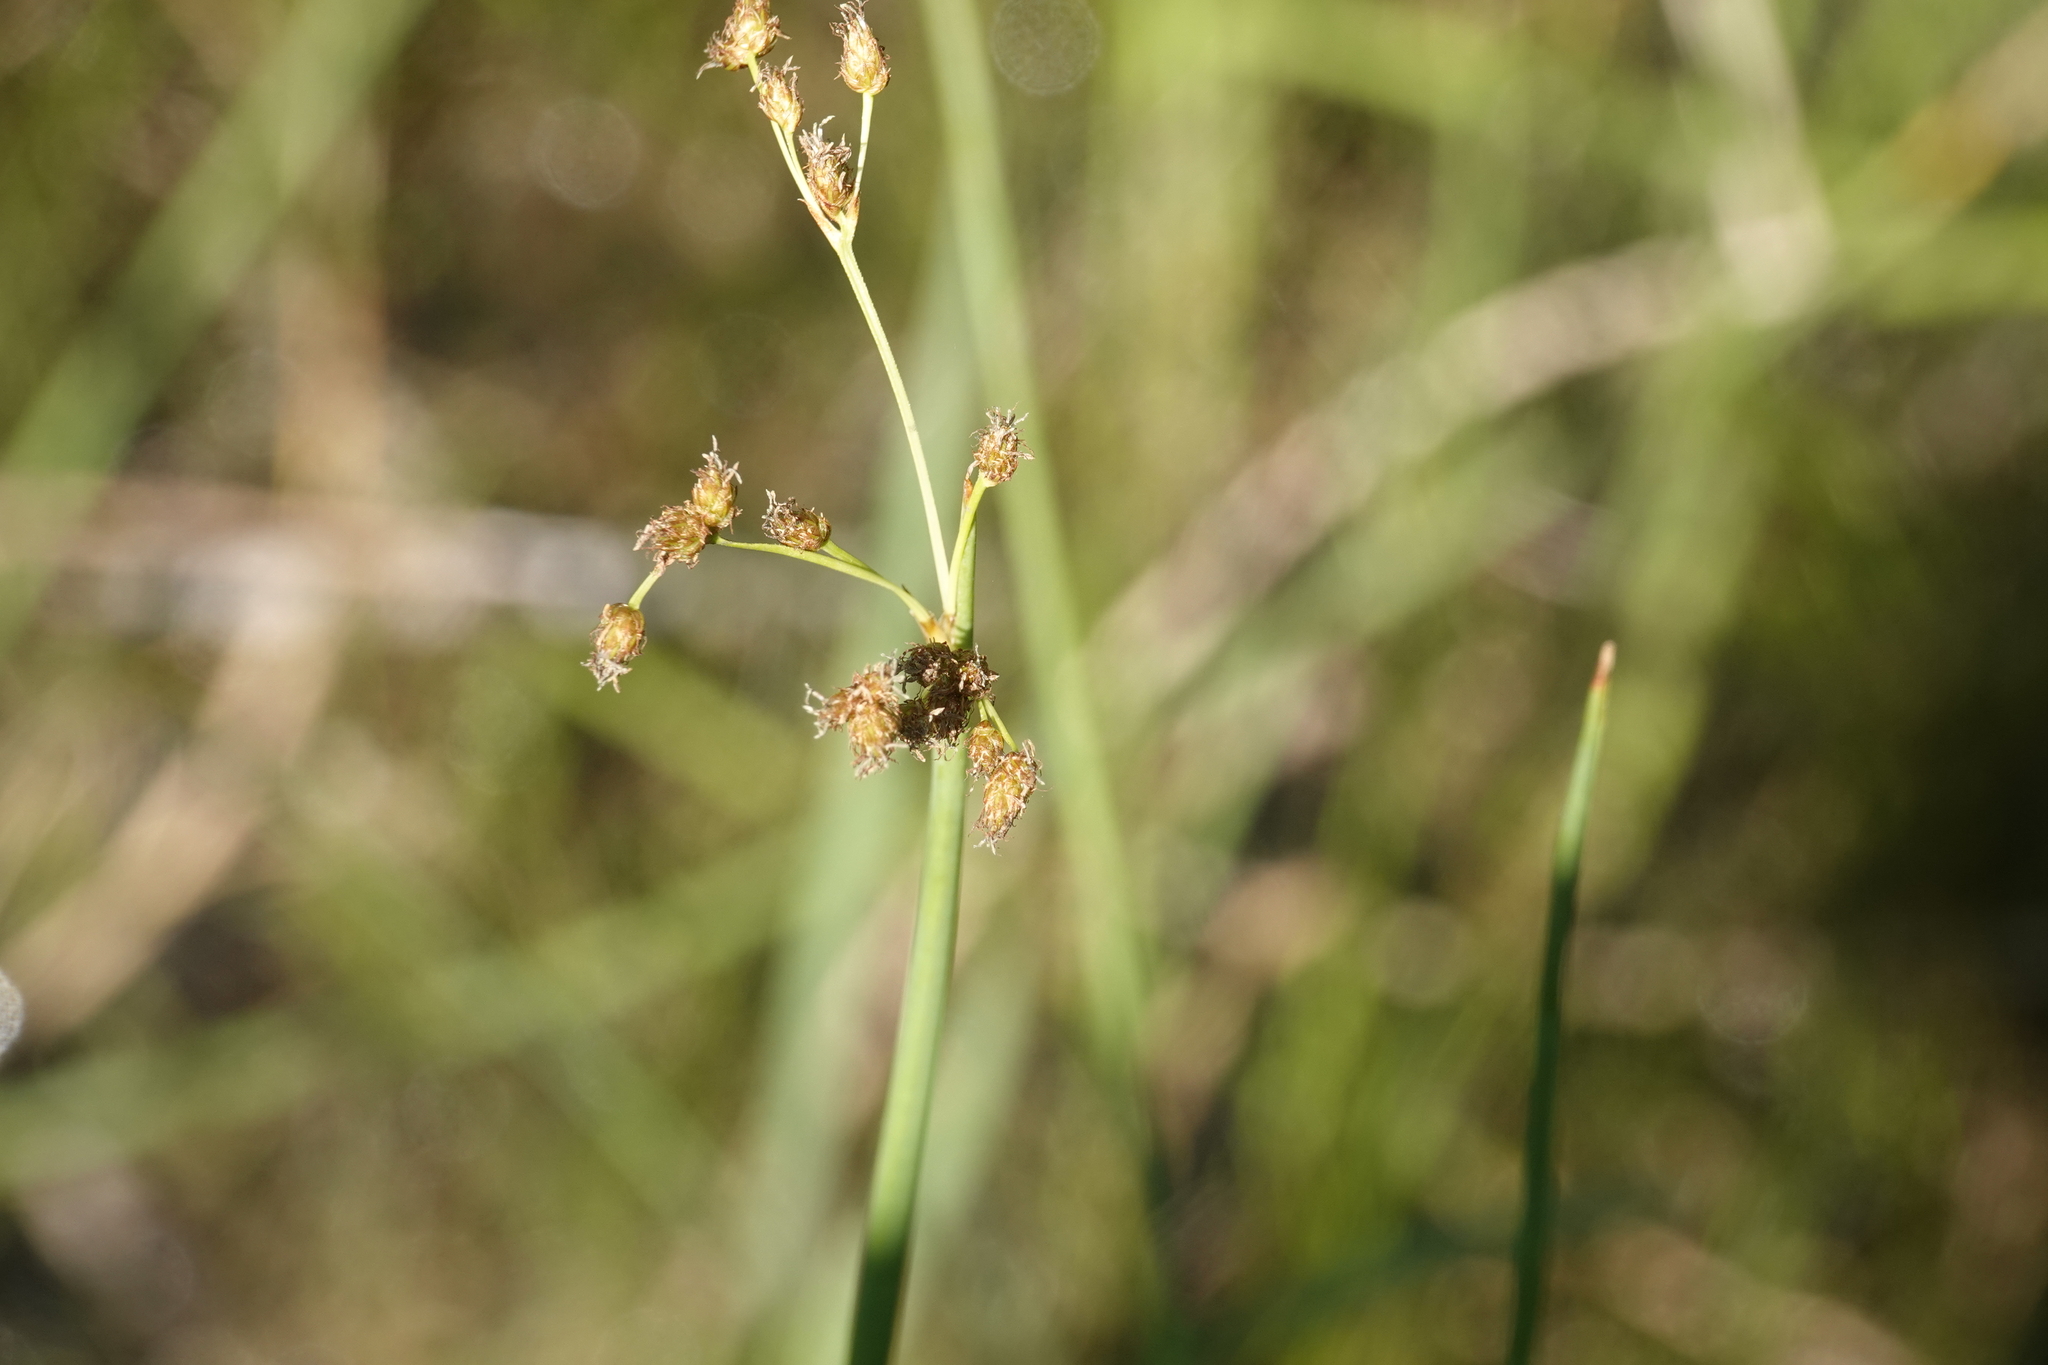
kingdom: Plantae
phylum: Tracheophyta
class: Liliopsida
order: Poales
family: Cyperaceae
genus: Schoenoplectus
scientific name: Schoenoplectus tabernaemontani
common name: Grey club-rush
